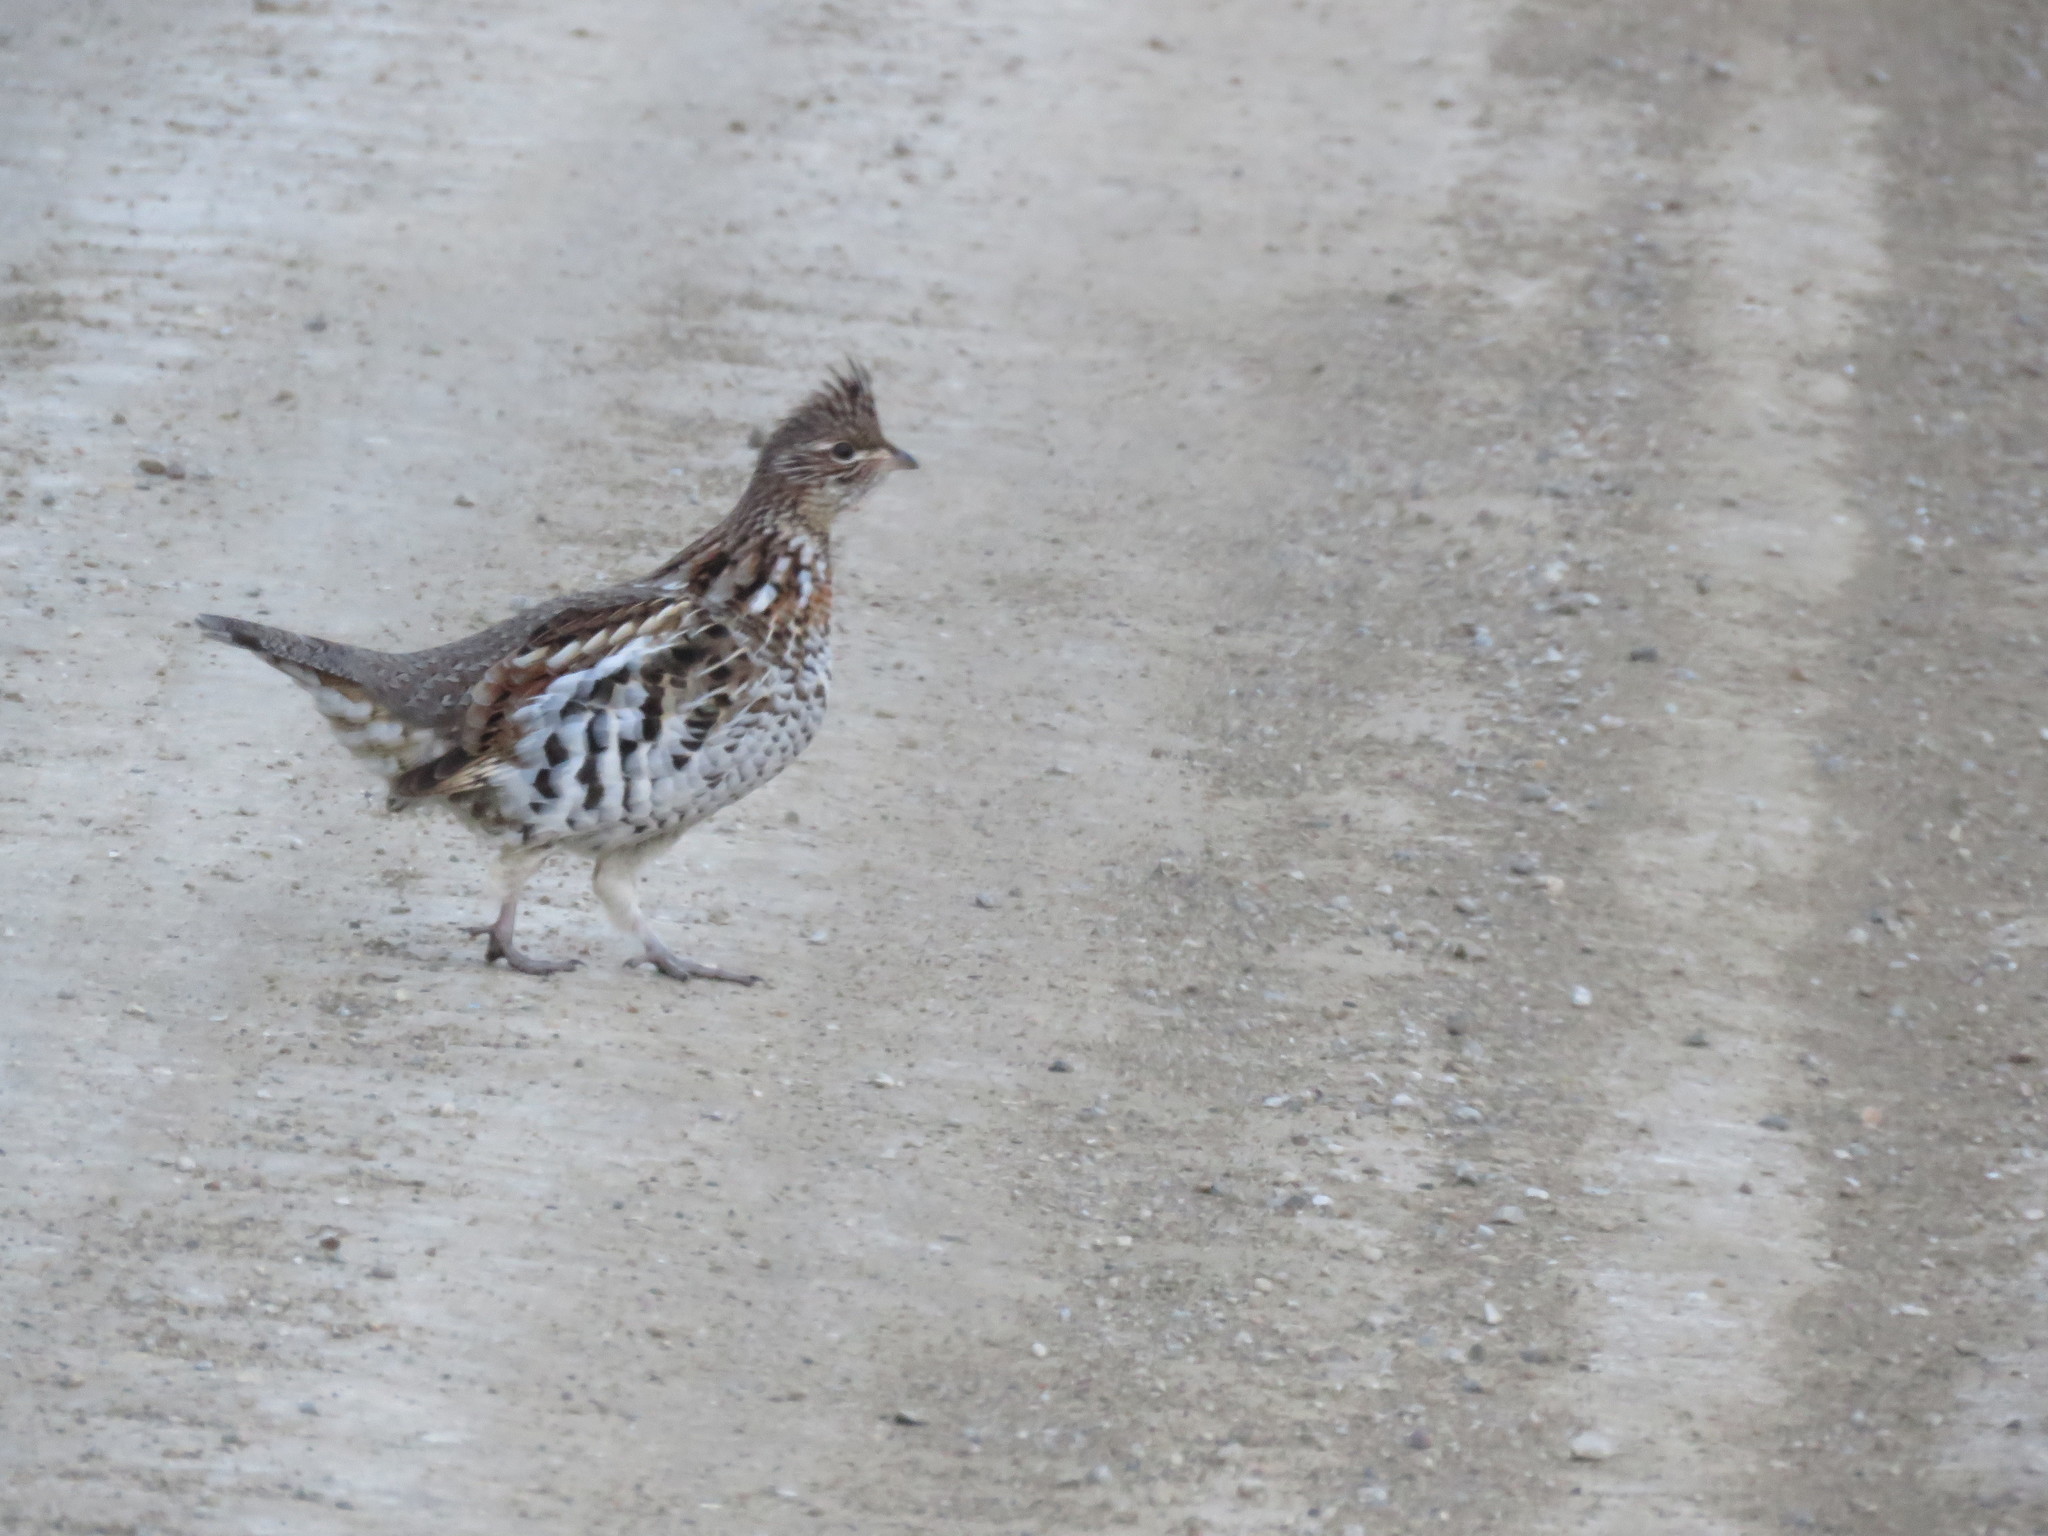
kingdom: Animalia
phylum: Chordata
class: Aves
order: Galliformes
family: Phasianidae
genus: Bonasa
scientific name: Bonasa umbellus
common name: Ruffed grouse
